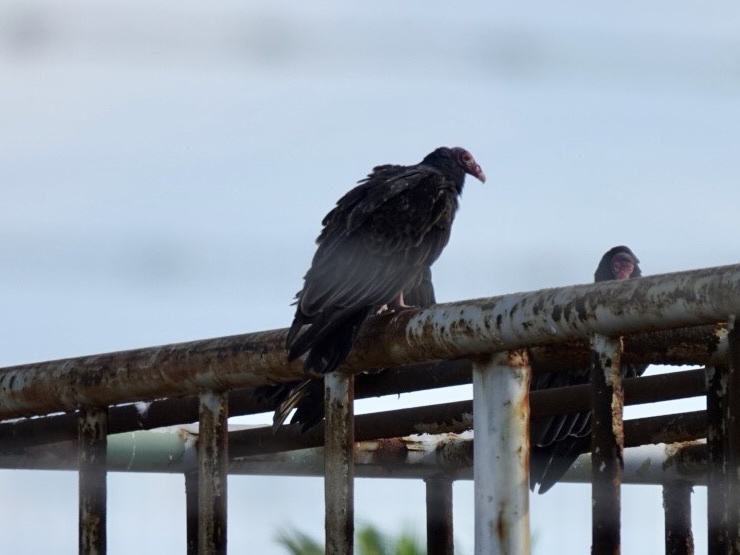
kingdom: Animalia
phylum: Chordata
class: Aves
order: Accipitriformes
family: Cathartidae
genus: Cathartes
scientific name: Cathartes aura
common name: Turkey vulture
